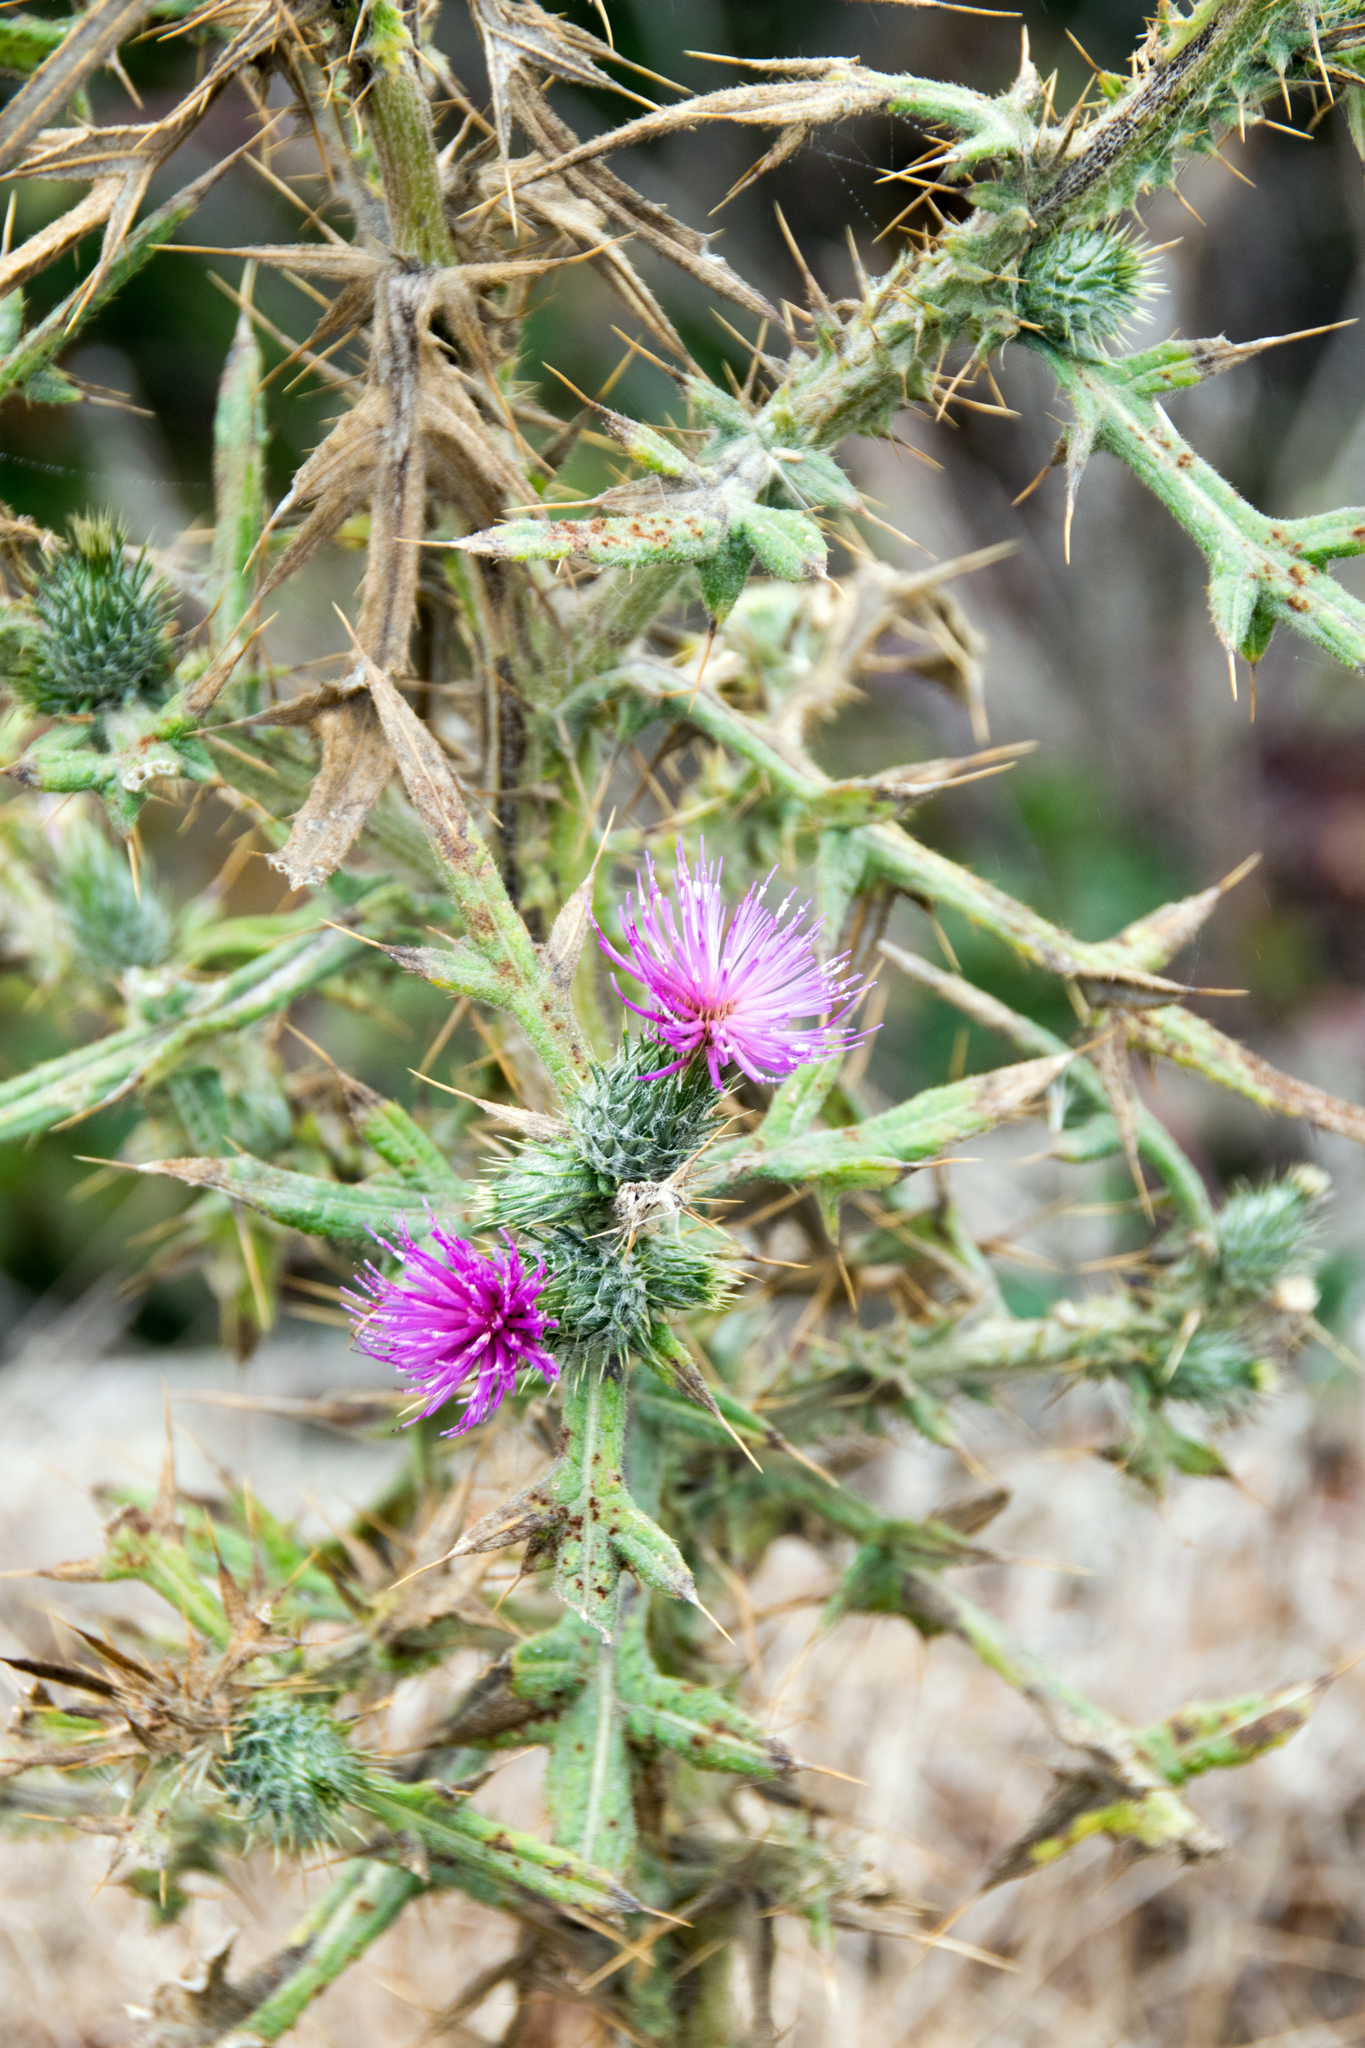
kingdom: Plantae
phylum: Tracheophyta
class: Magnoliopsida
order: Asterales
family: Asteraceae
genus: Cirsium
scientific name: Cirsium vulgare
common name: Bull thistle
